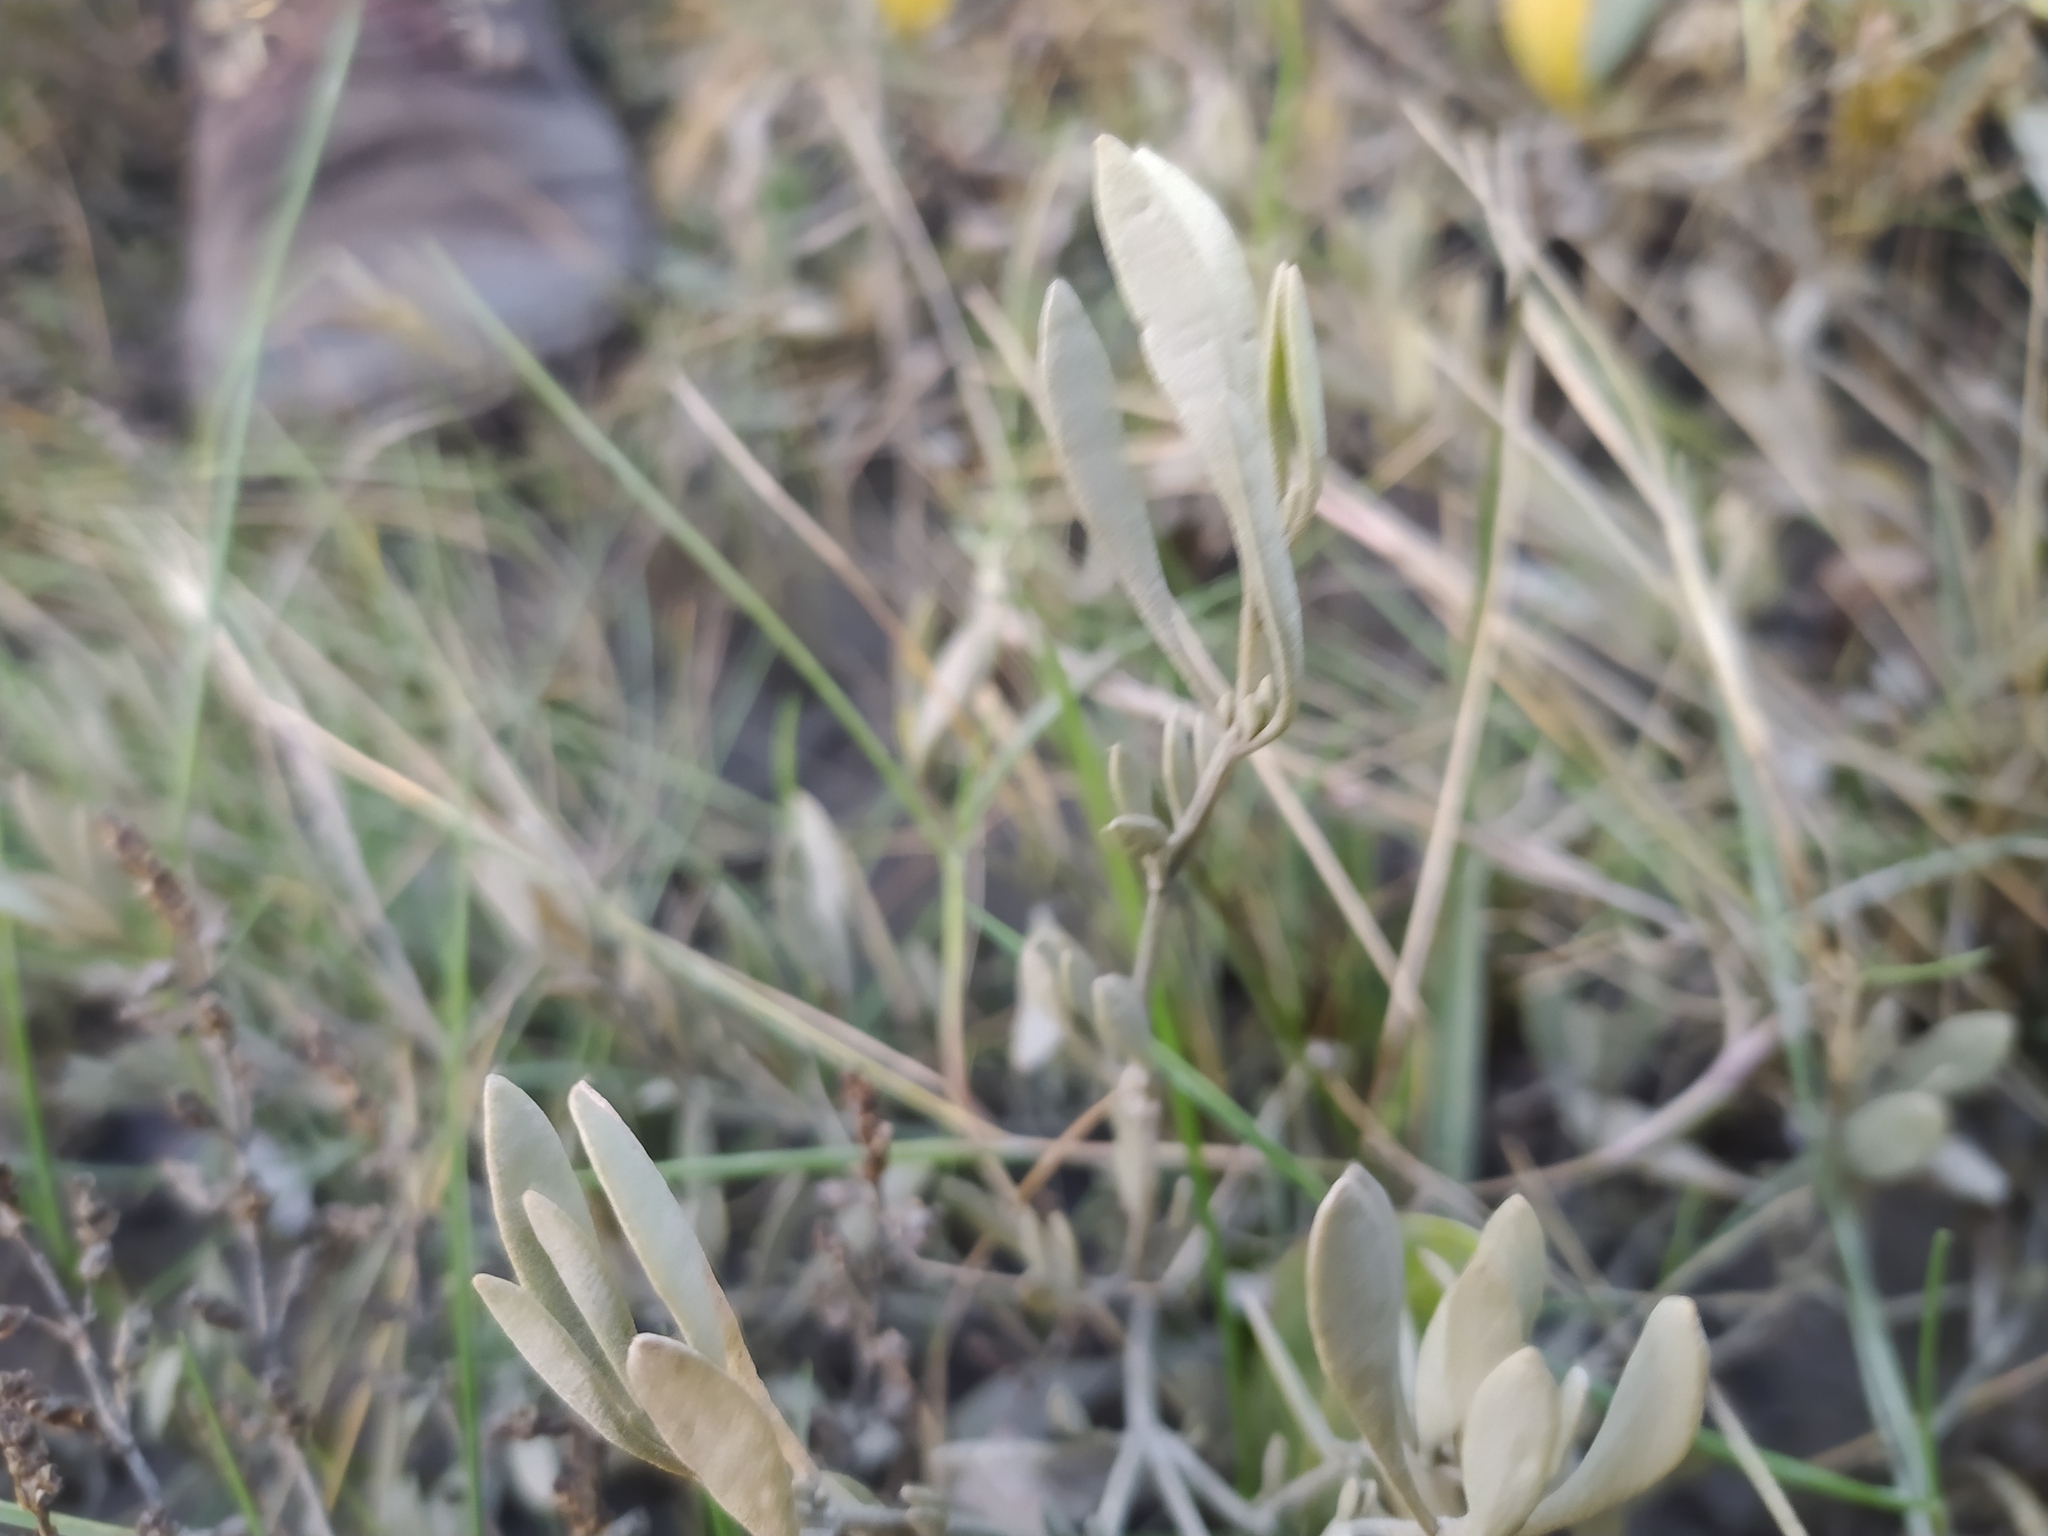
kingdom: Plantae
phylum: Tracheophyta
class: Magnoliopsida
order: Caryophyllales
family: Amaranthaceae
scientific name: Amaranthaceae
